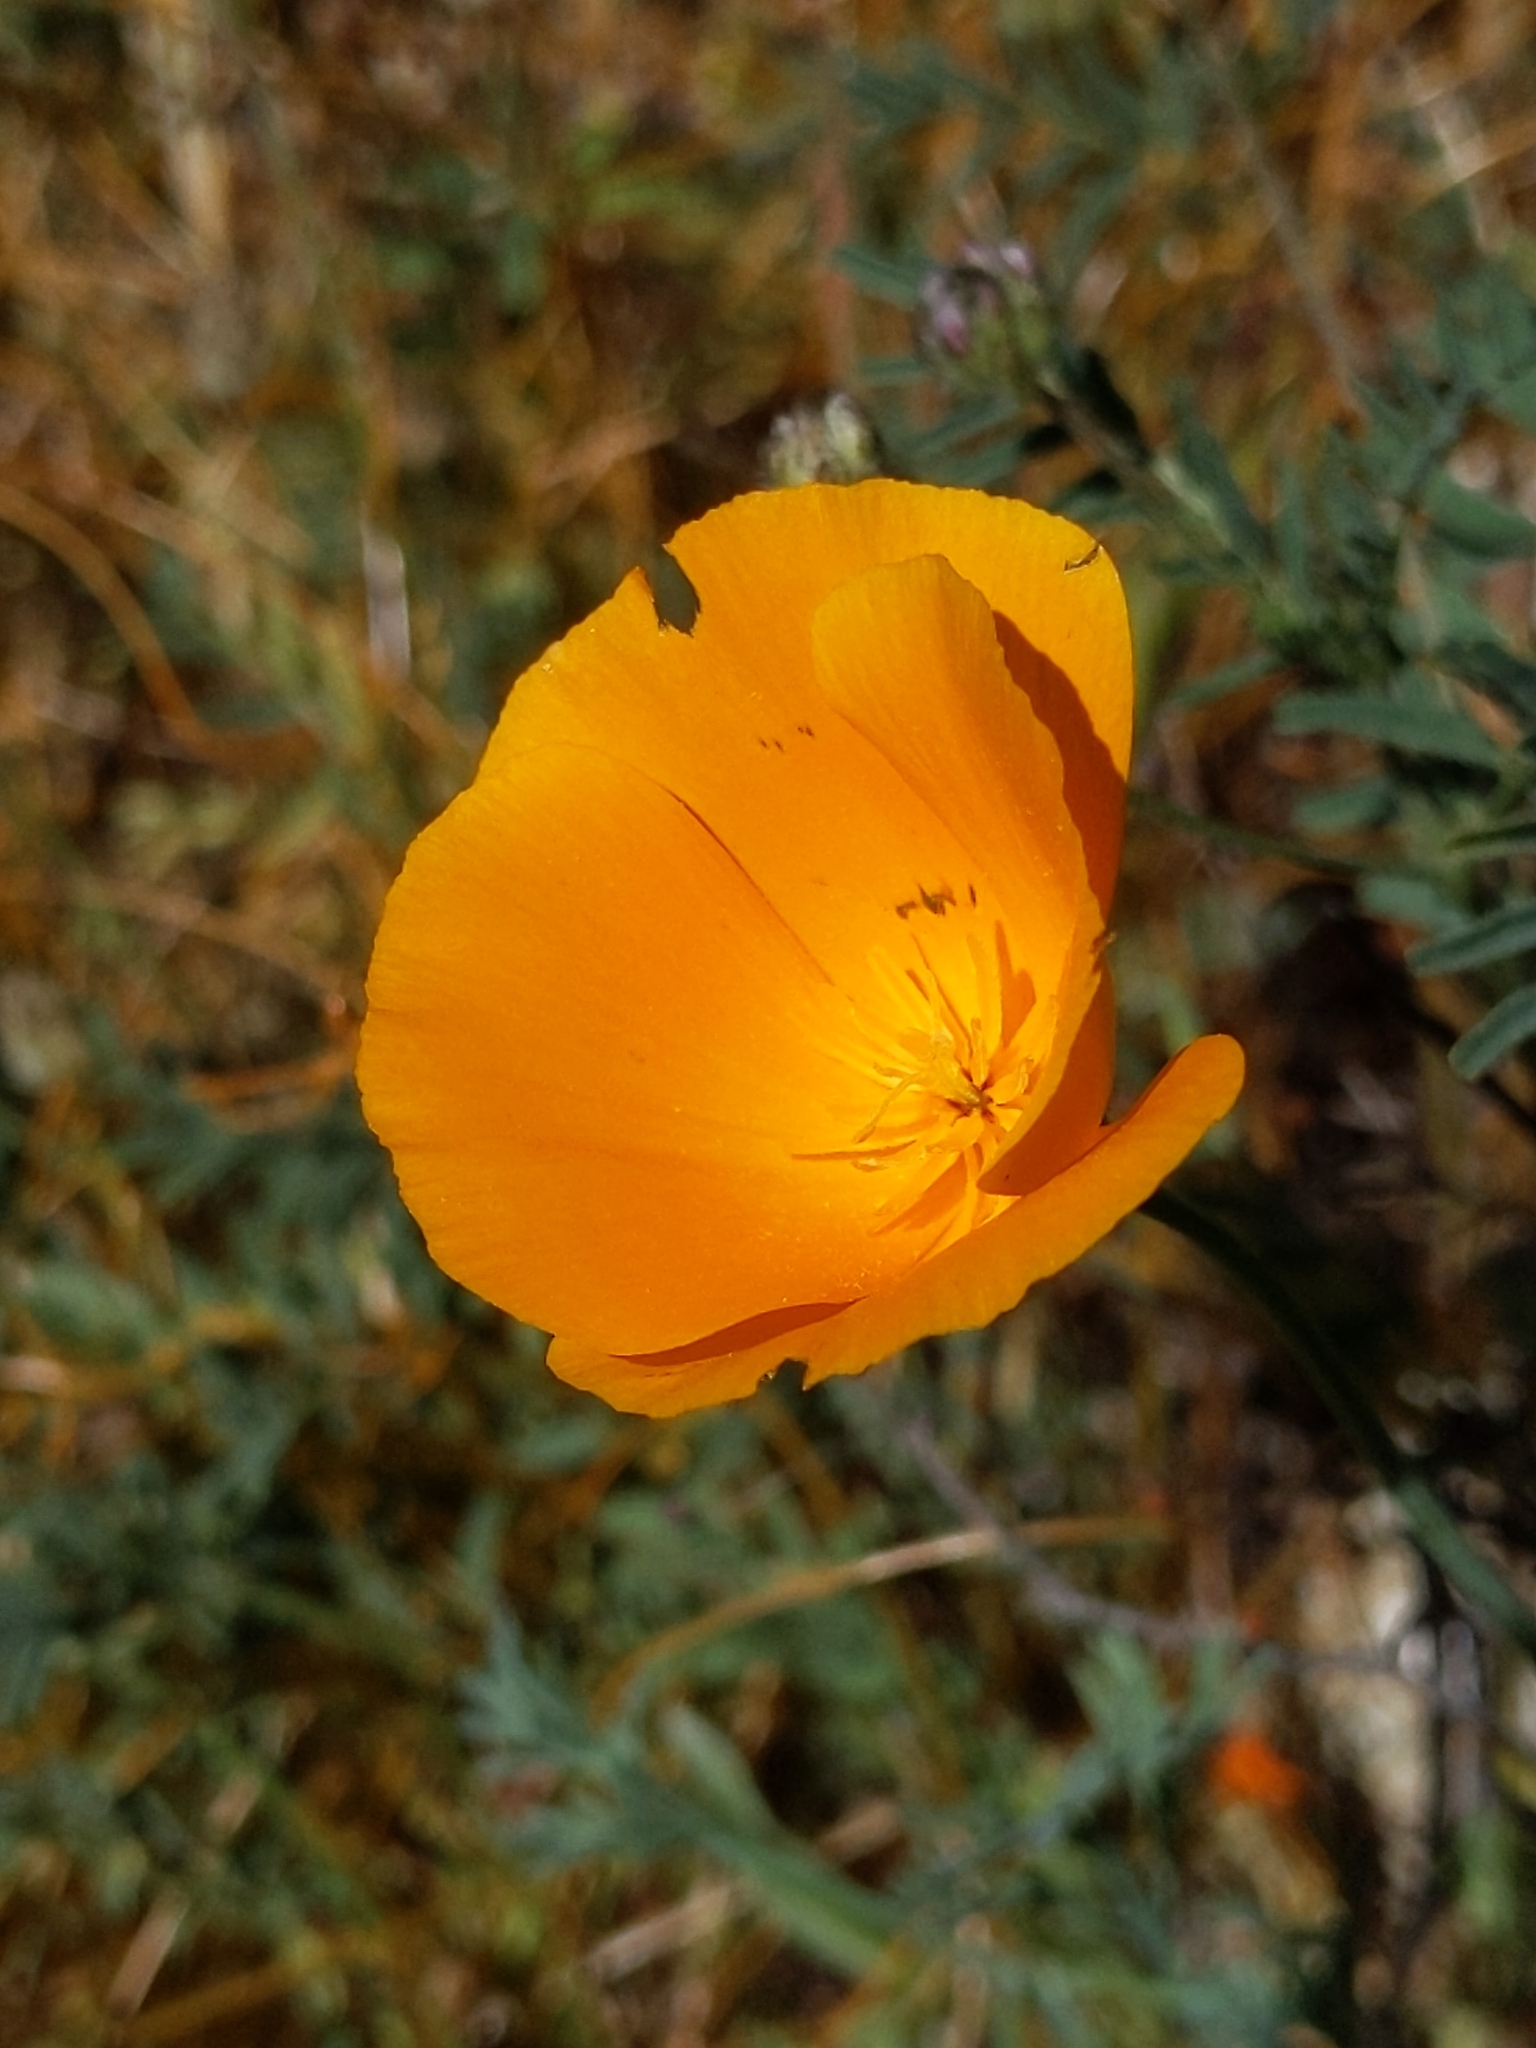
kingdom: Plantae
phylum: Tracheophyta
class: Magnoliopsida
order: Ranunculales
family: Papaveraceae
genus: Eschscholzia
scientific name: Eschscholzia lemmonii
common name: Lemmon's poppy
